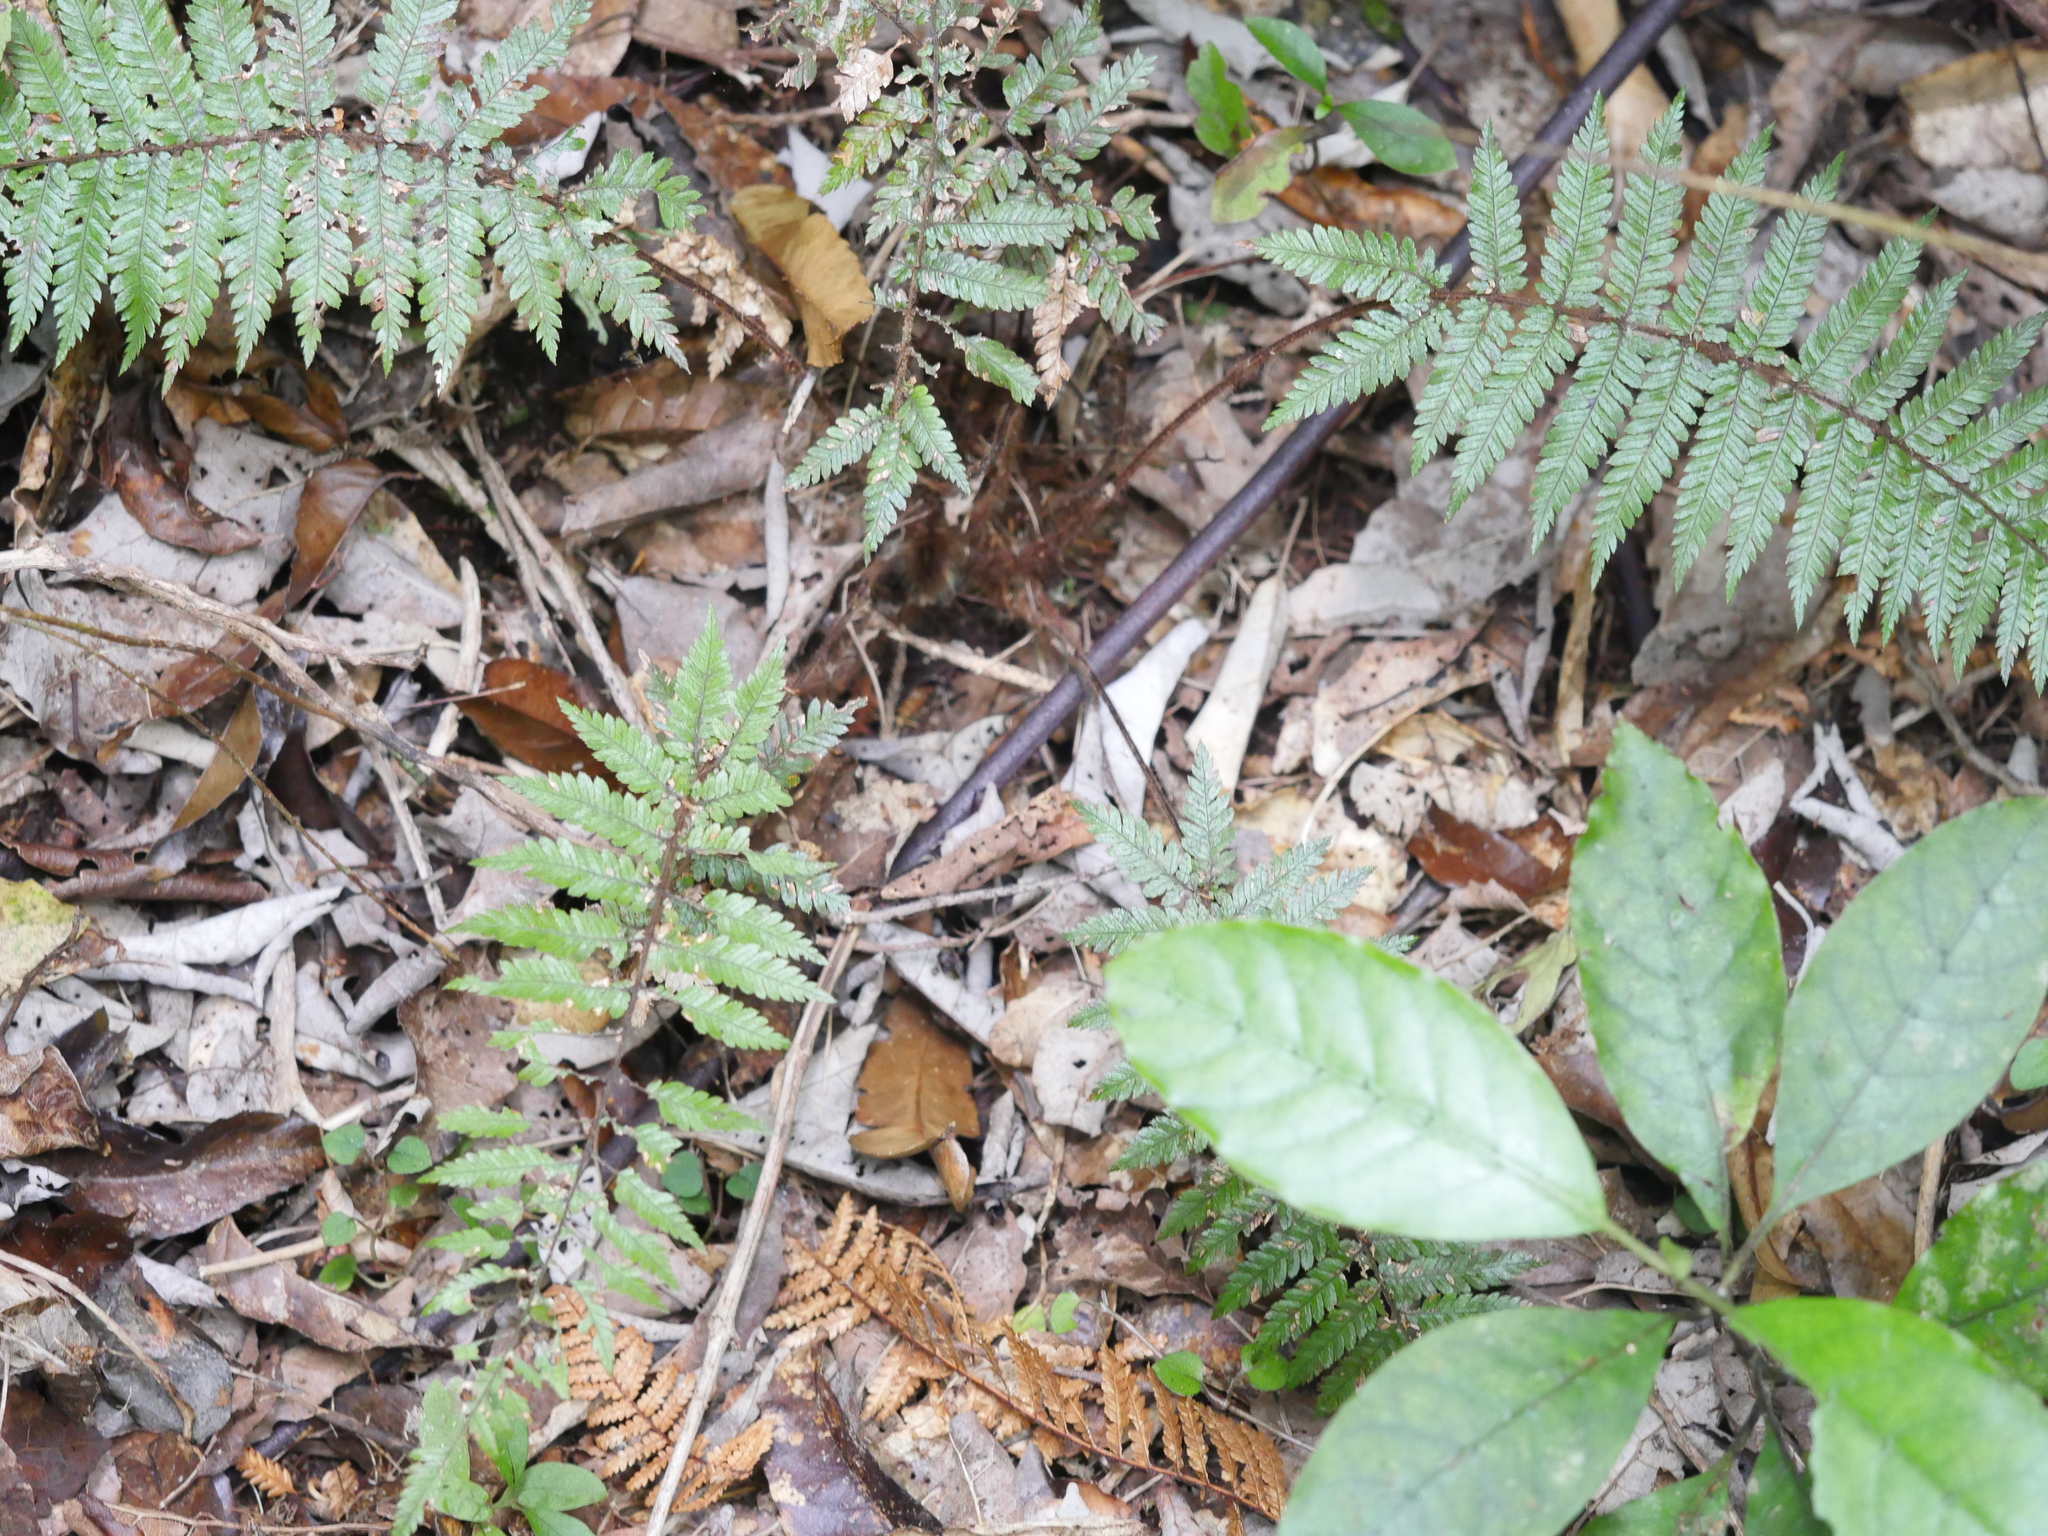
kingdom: Plantae
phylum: Tracheophyta
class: Polypodiopsida
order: Cyatheales
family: Dicksoniaceae
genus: Dicksonia
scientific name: Dicksonia squarrosa
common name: Hard treefern
